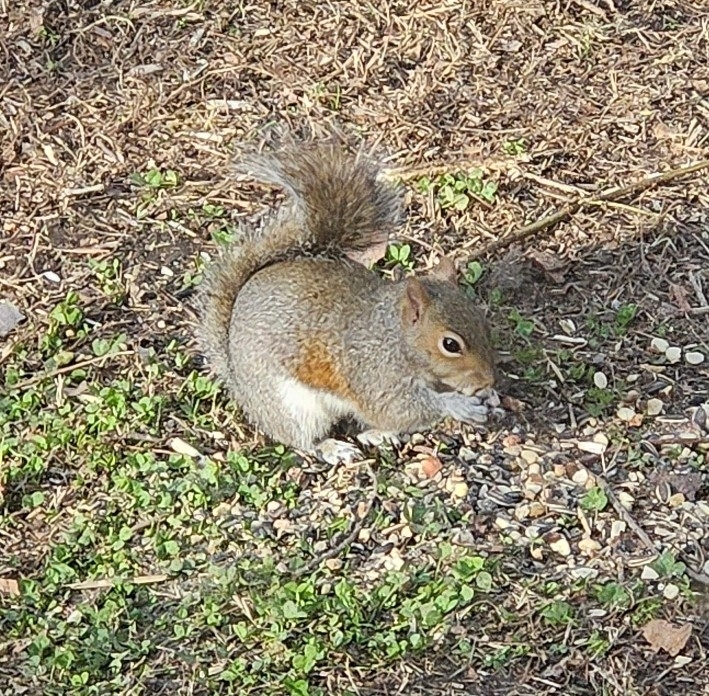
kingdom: Animalia
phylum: Chordata
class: Mammalia
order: Rodentia
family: Sciuridae
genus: Sciurus
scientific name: Sciurus carolinensis
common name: Eastern gray squirrel
